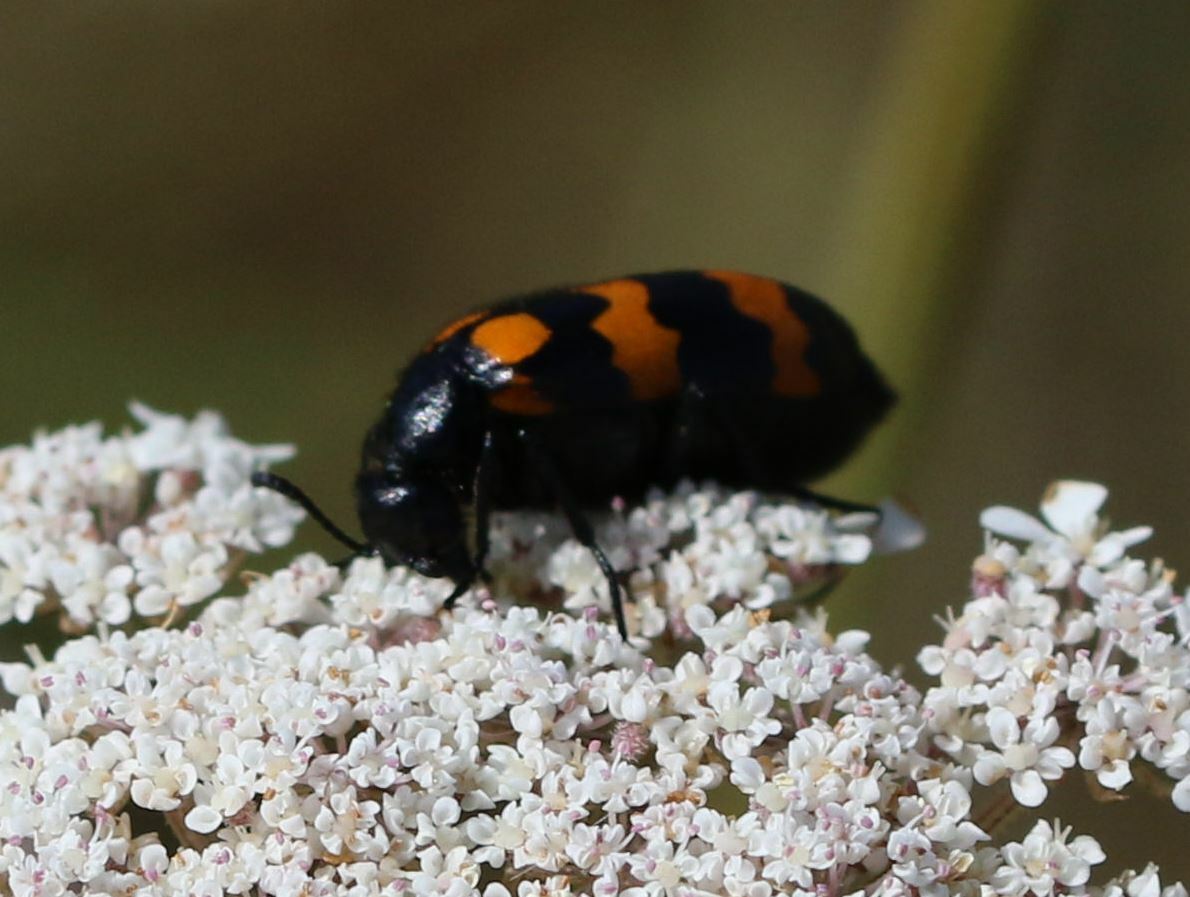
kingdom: Animalia
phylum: Arthropoda
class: Insecta
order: Coleoptera
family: Meloidae
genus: Mylabris
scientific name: Mylabris variabilis
